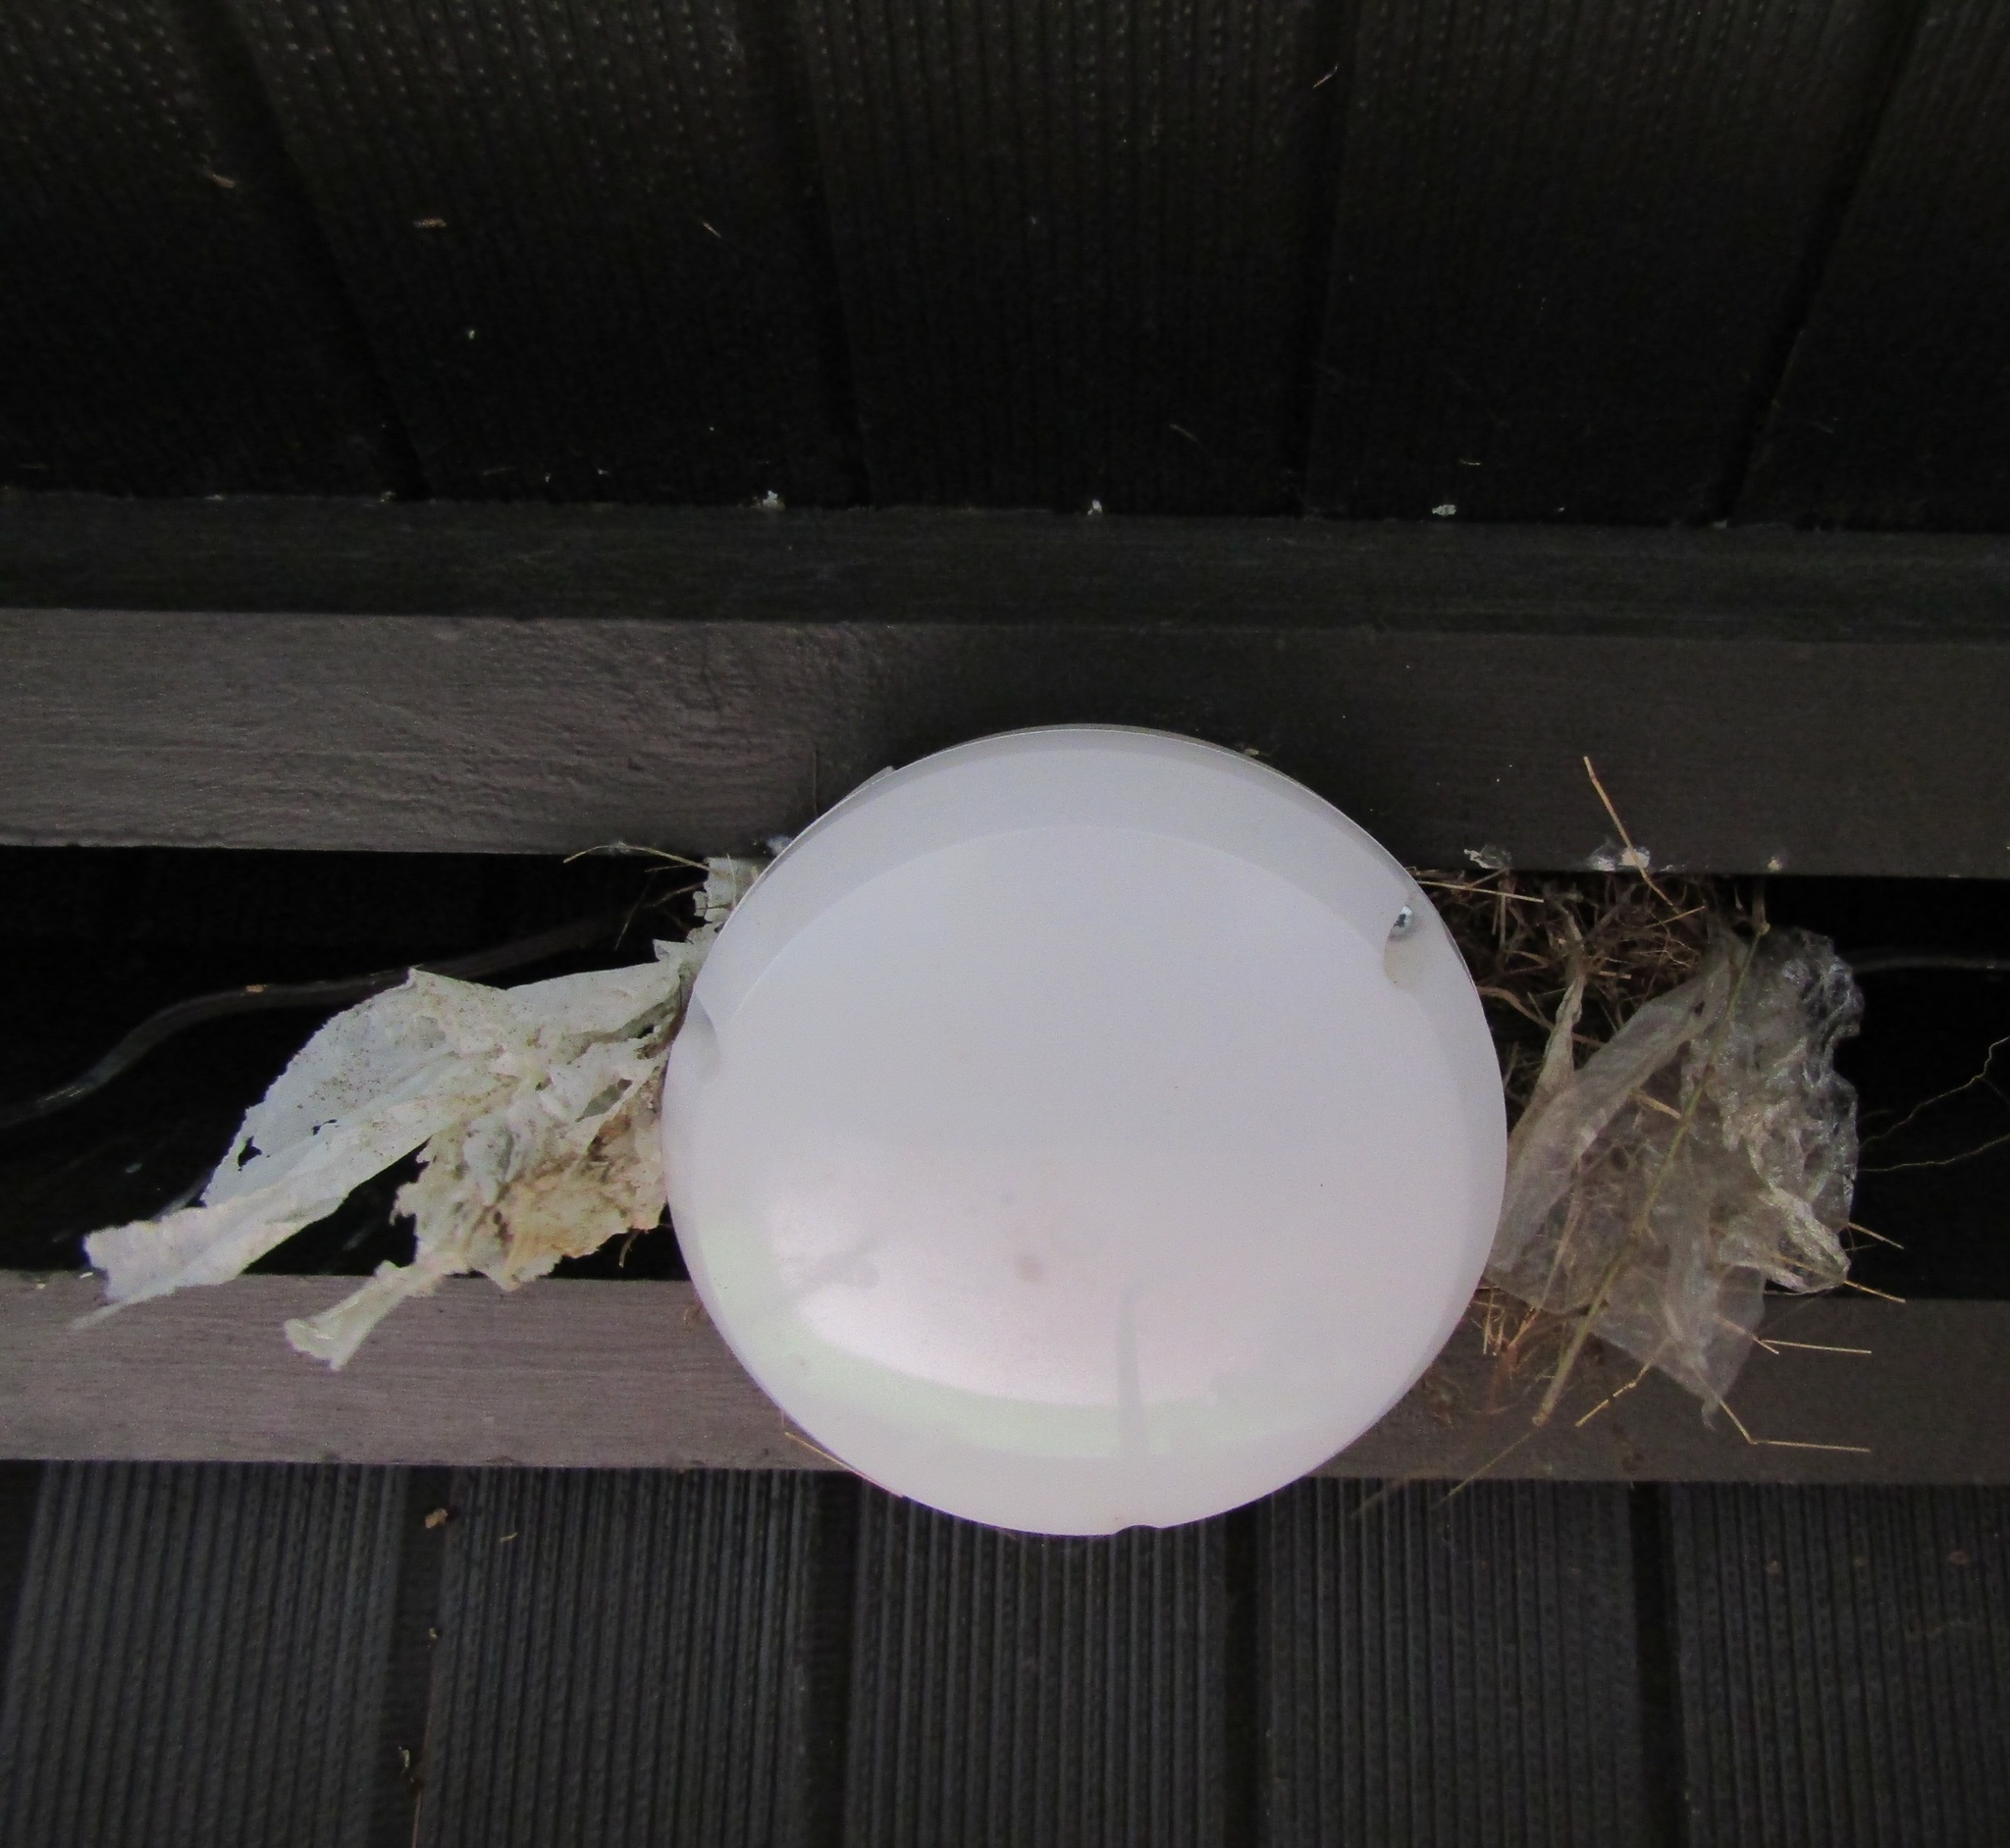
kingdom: Animalia
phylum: Chordata
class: Aves
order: Passeriformes
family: Passeridae
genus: Passer
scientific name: Passer domesticus
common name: House sparrow
